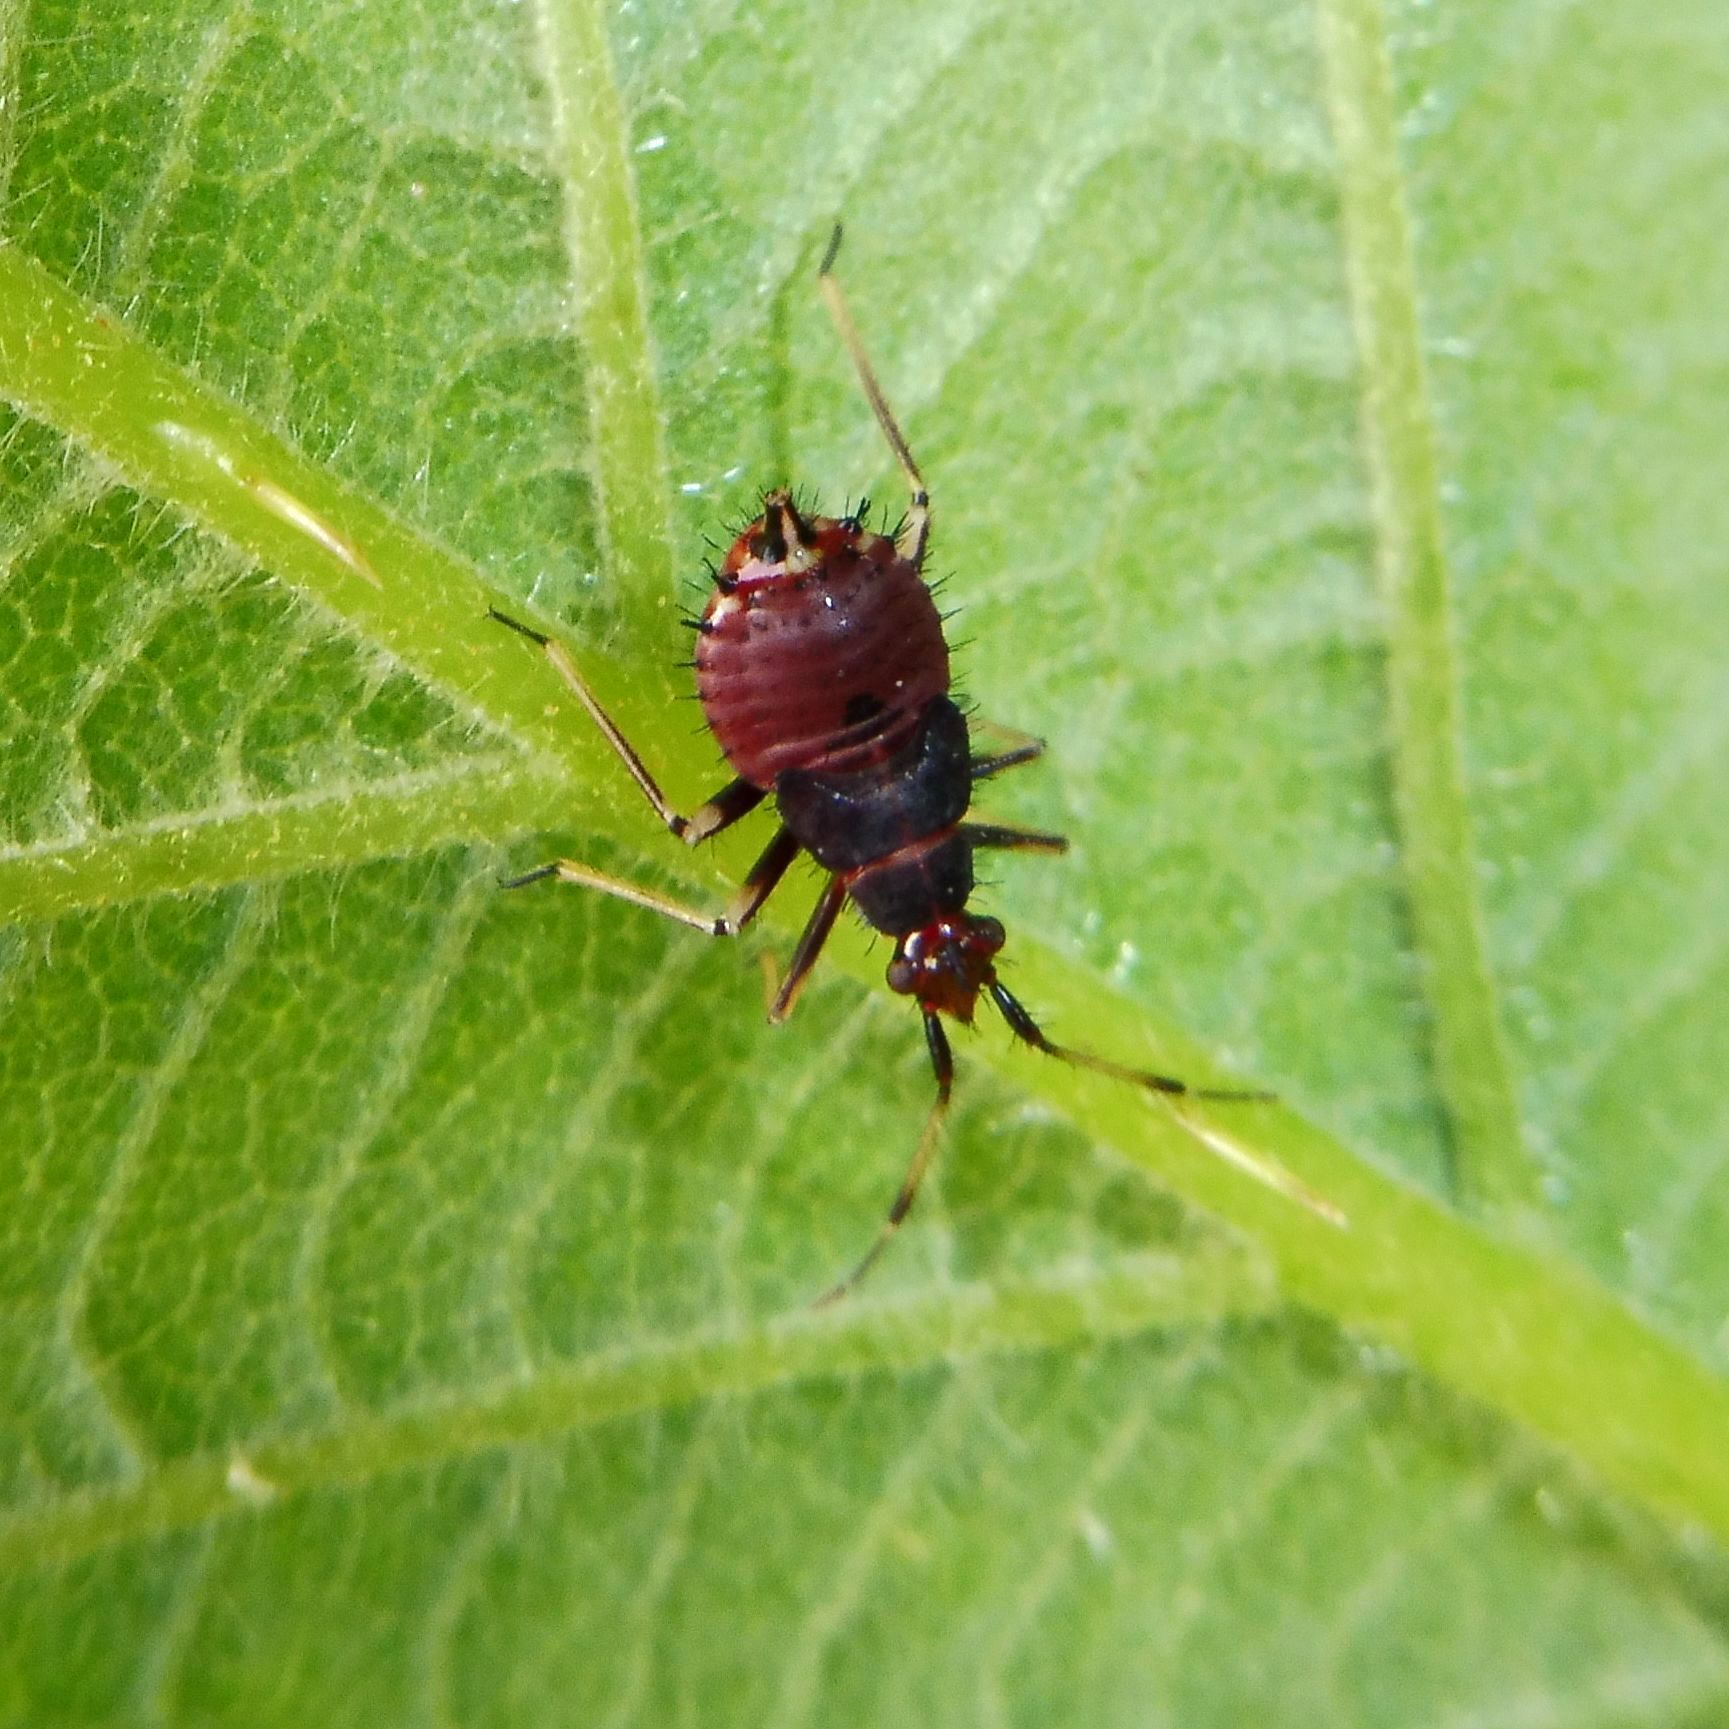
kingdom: Animalia
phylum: Arthropoda
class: Insecta
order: Hemiptera
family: Miridae
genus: Deraeocoris
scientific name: Deraeocoris ruber
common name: Plant bug
